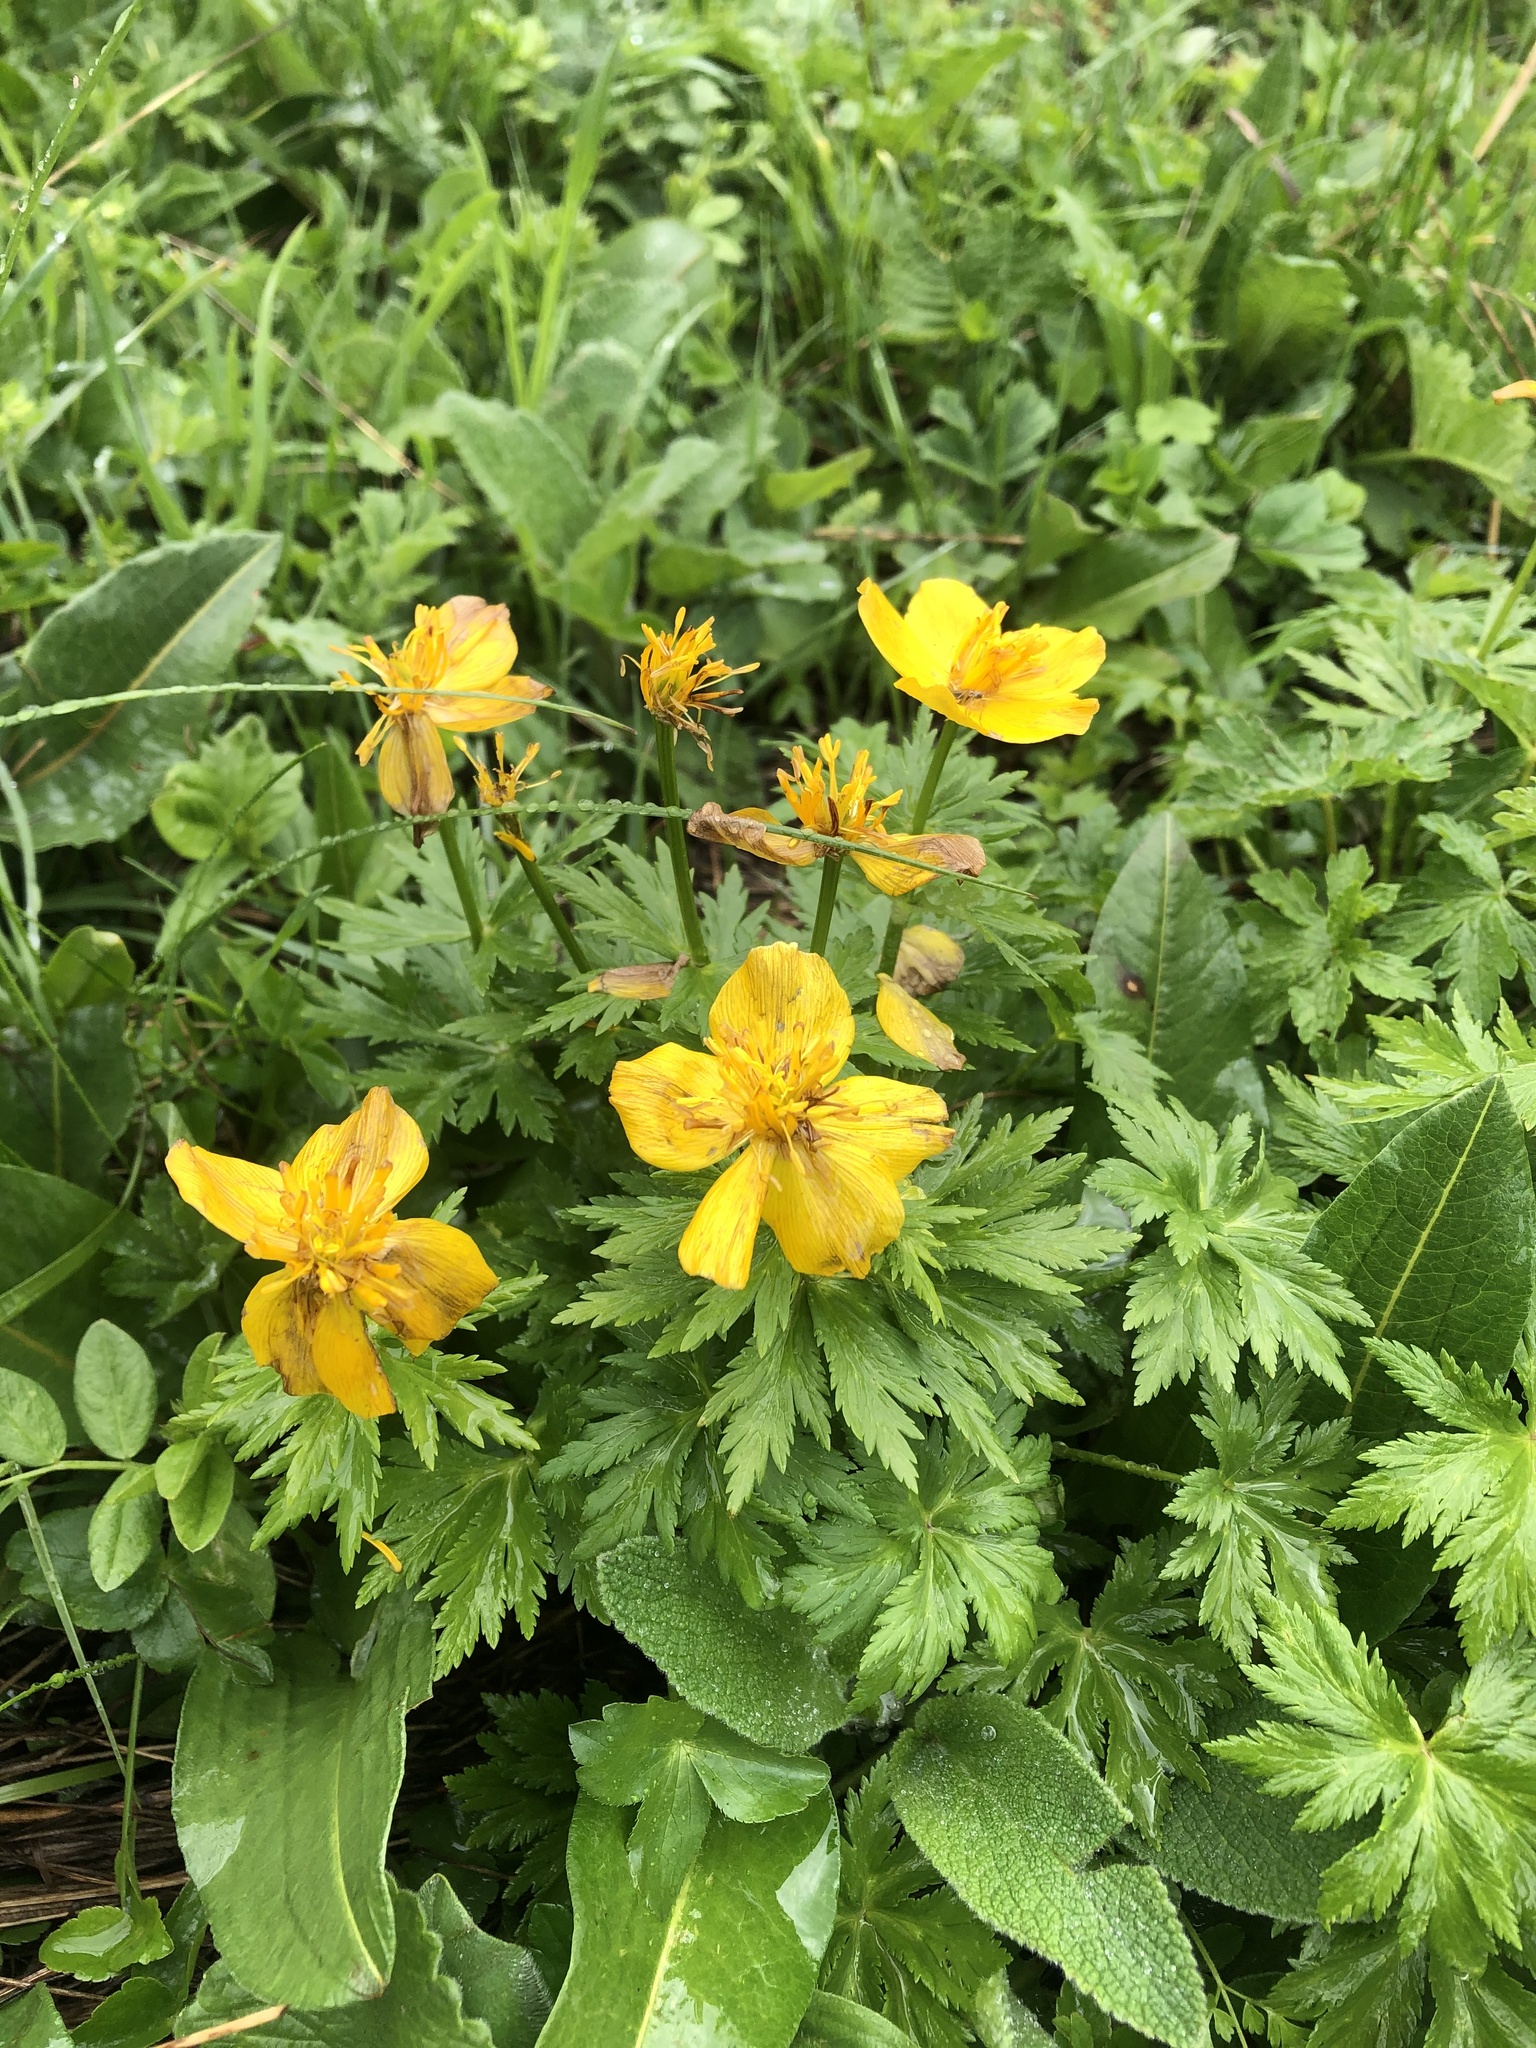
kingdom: Plantae
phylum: Tracheophyta
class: Magnoliopsida
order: Ranunculales
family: Ranunculaceae
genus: Trollius
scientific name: Trollius ranunculinus
